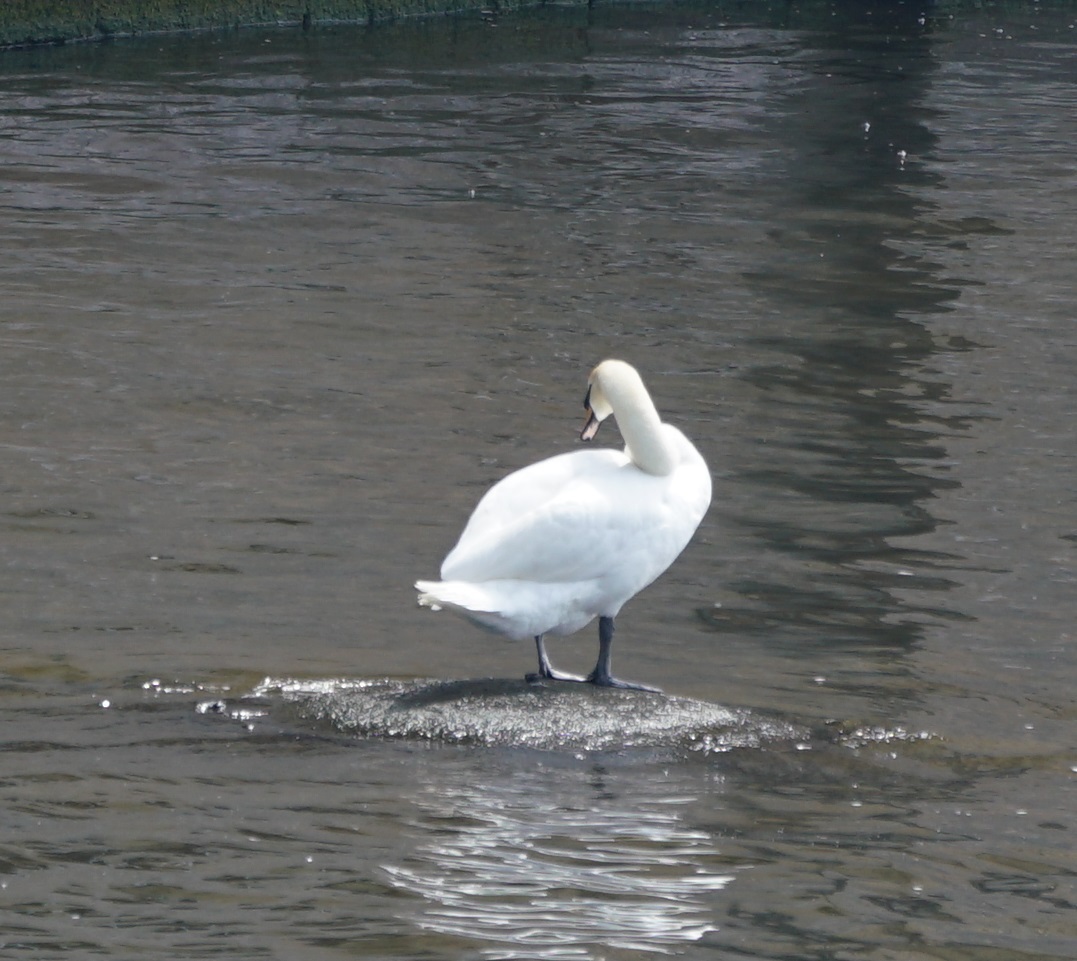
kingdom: Animalia
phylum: Chordata
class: Aves
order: Anseriformes
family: Anatidae
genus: Cygnus
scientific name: Cygnus olor
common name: Mute swan
